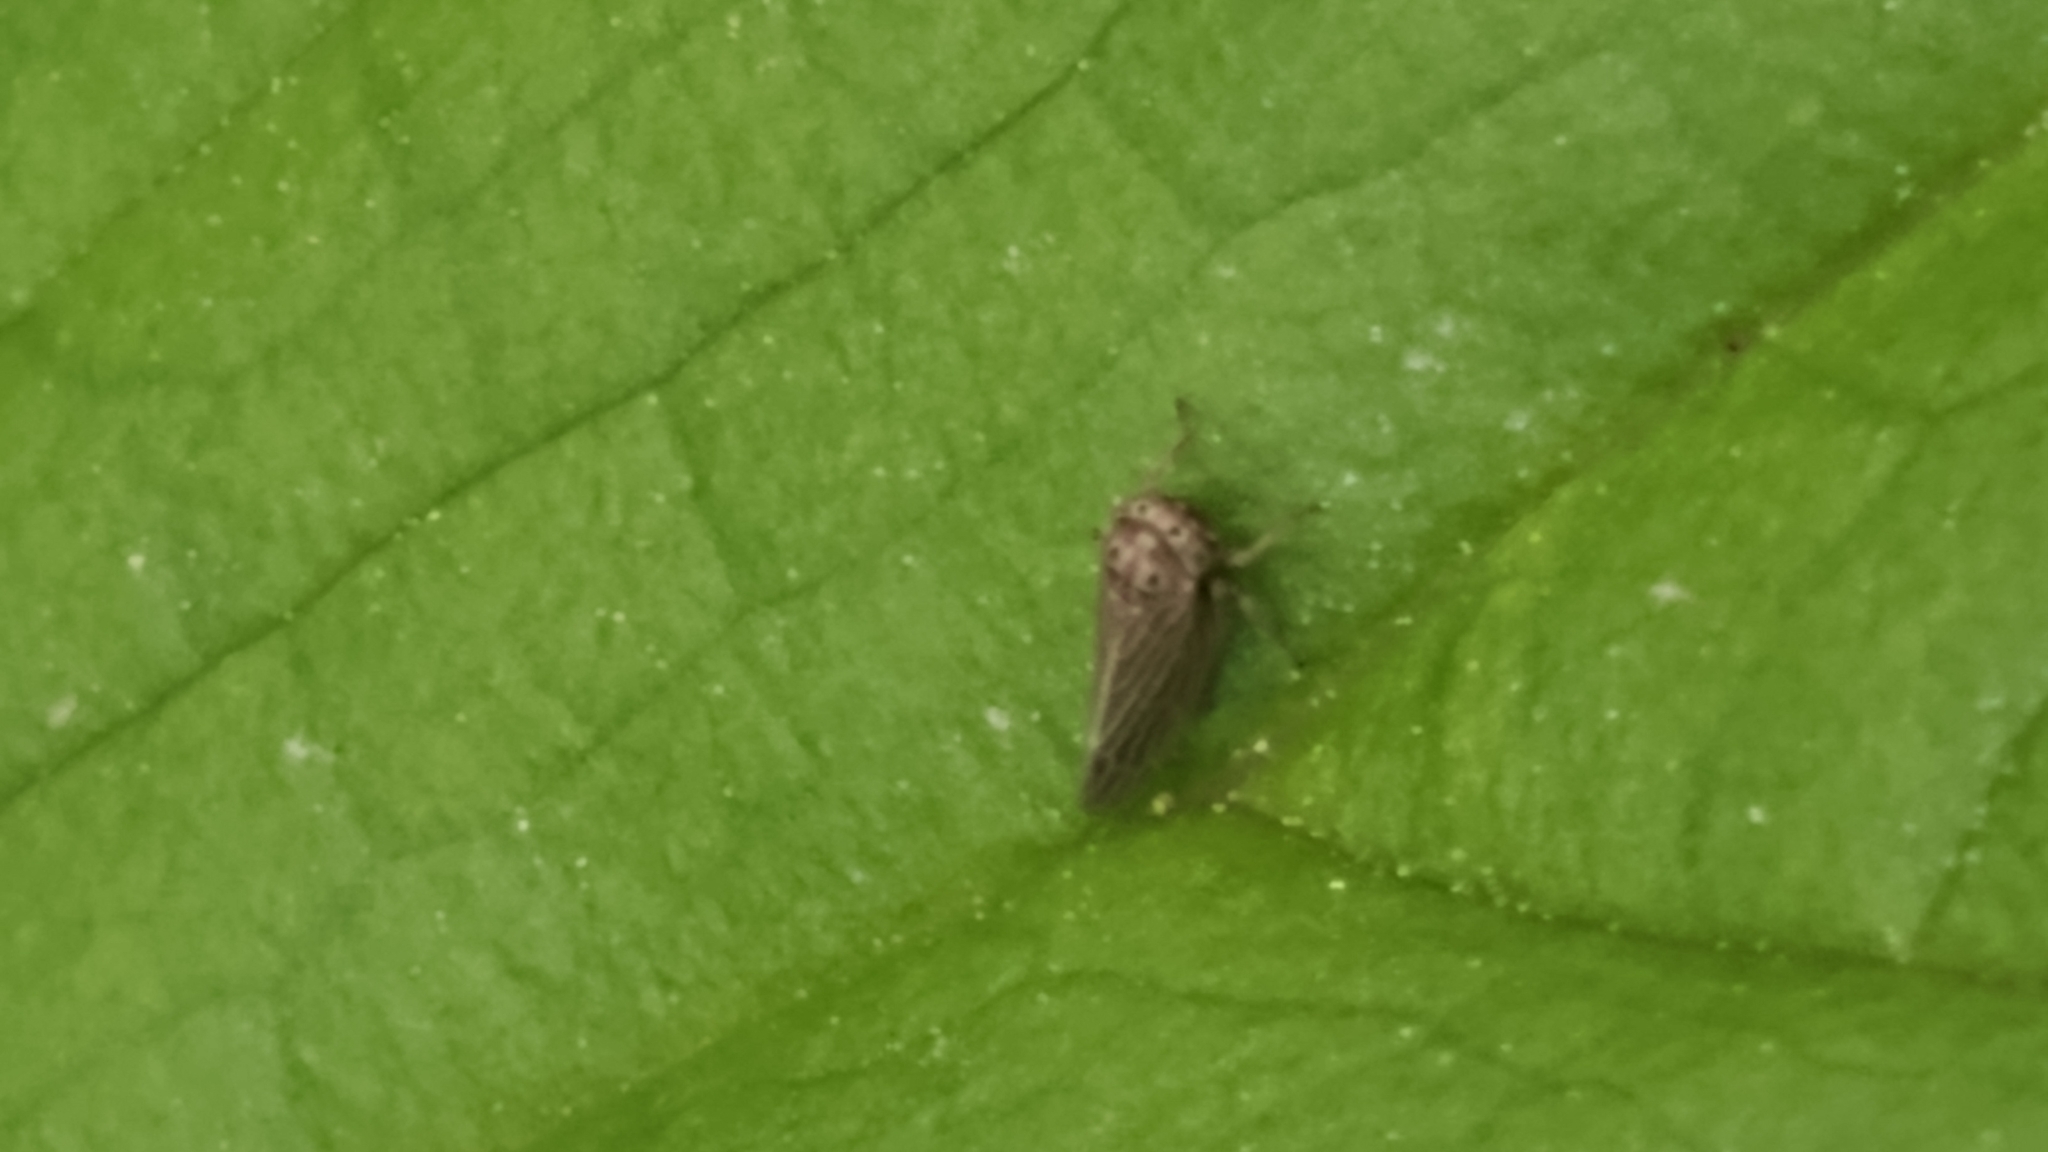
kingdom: Animalia
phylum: Arthropoda
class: Insecta
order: Hemiptera
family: Cicadellidae
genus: Agallia
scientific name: Agallia constricta
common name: The constricted leafhopper
